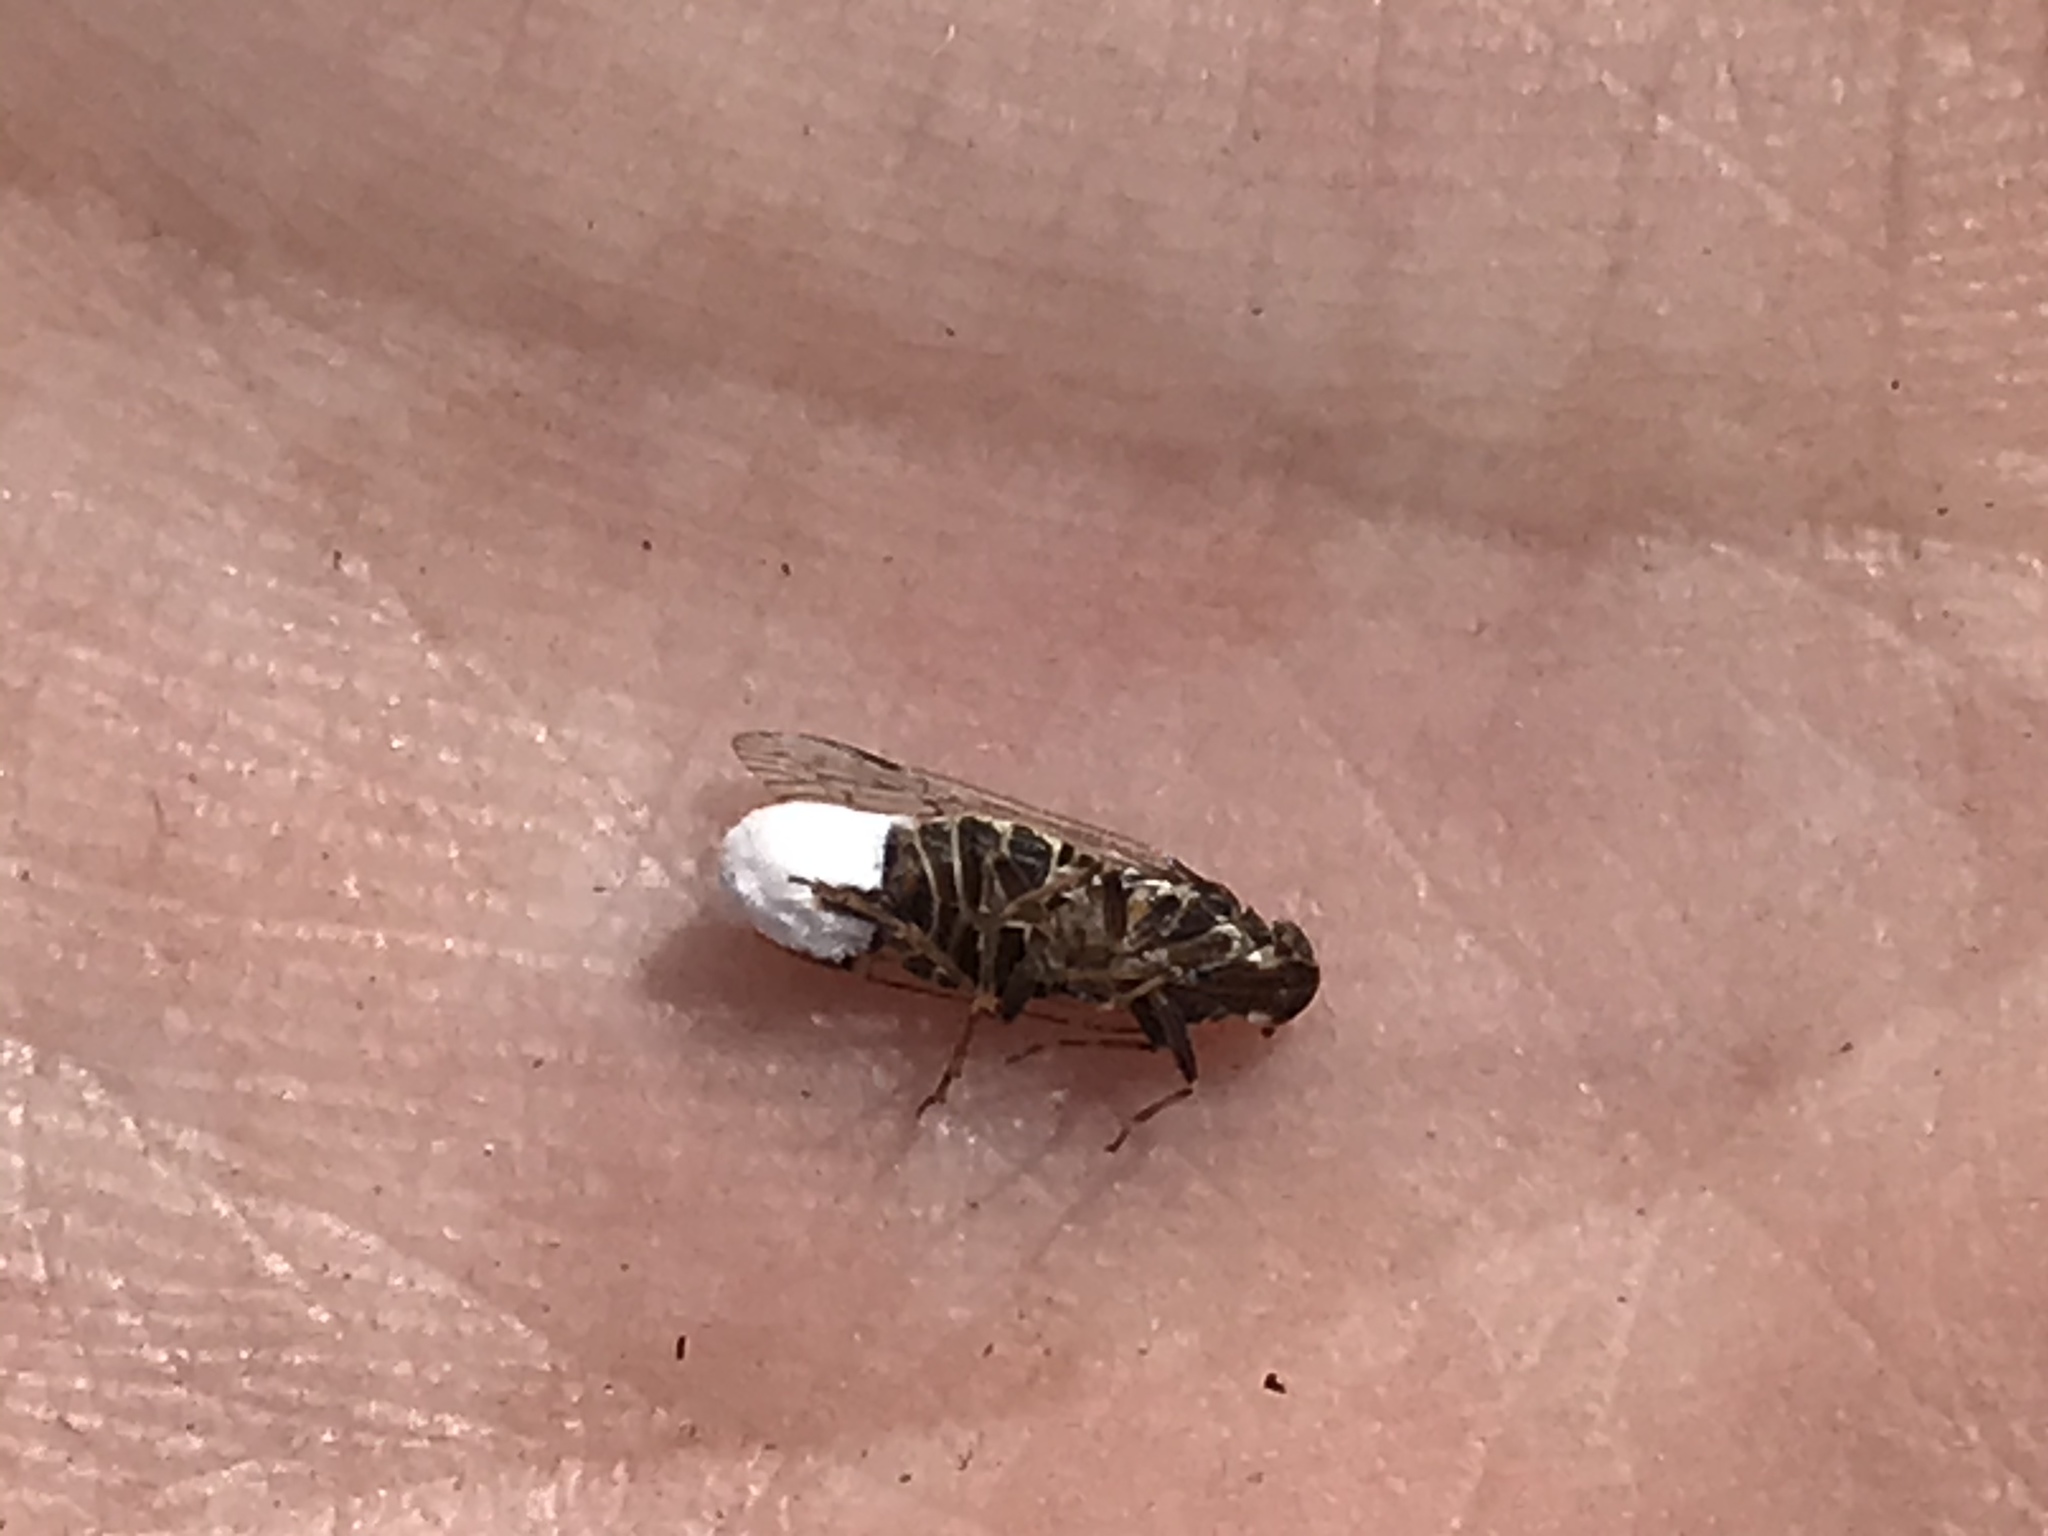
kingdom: Animalia
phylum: Arthropoda
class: Insecta
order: Hemiptera
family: Cixiidae
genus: Melanoliarus
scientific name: Melanoliarus aridus
